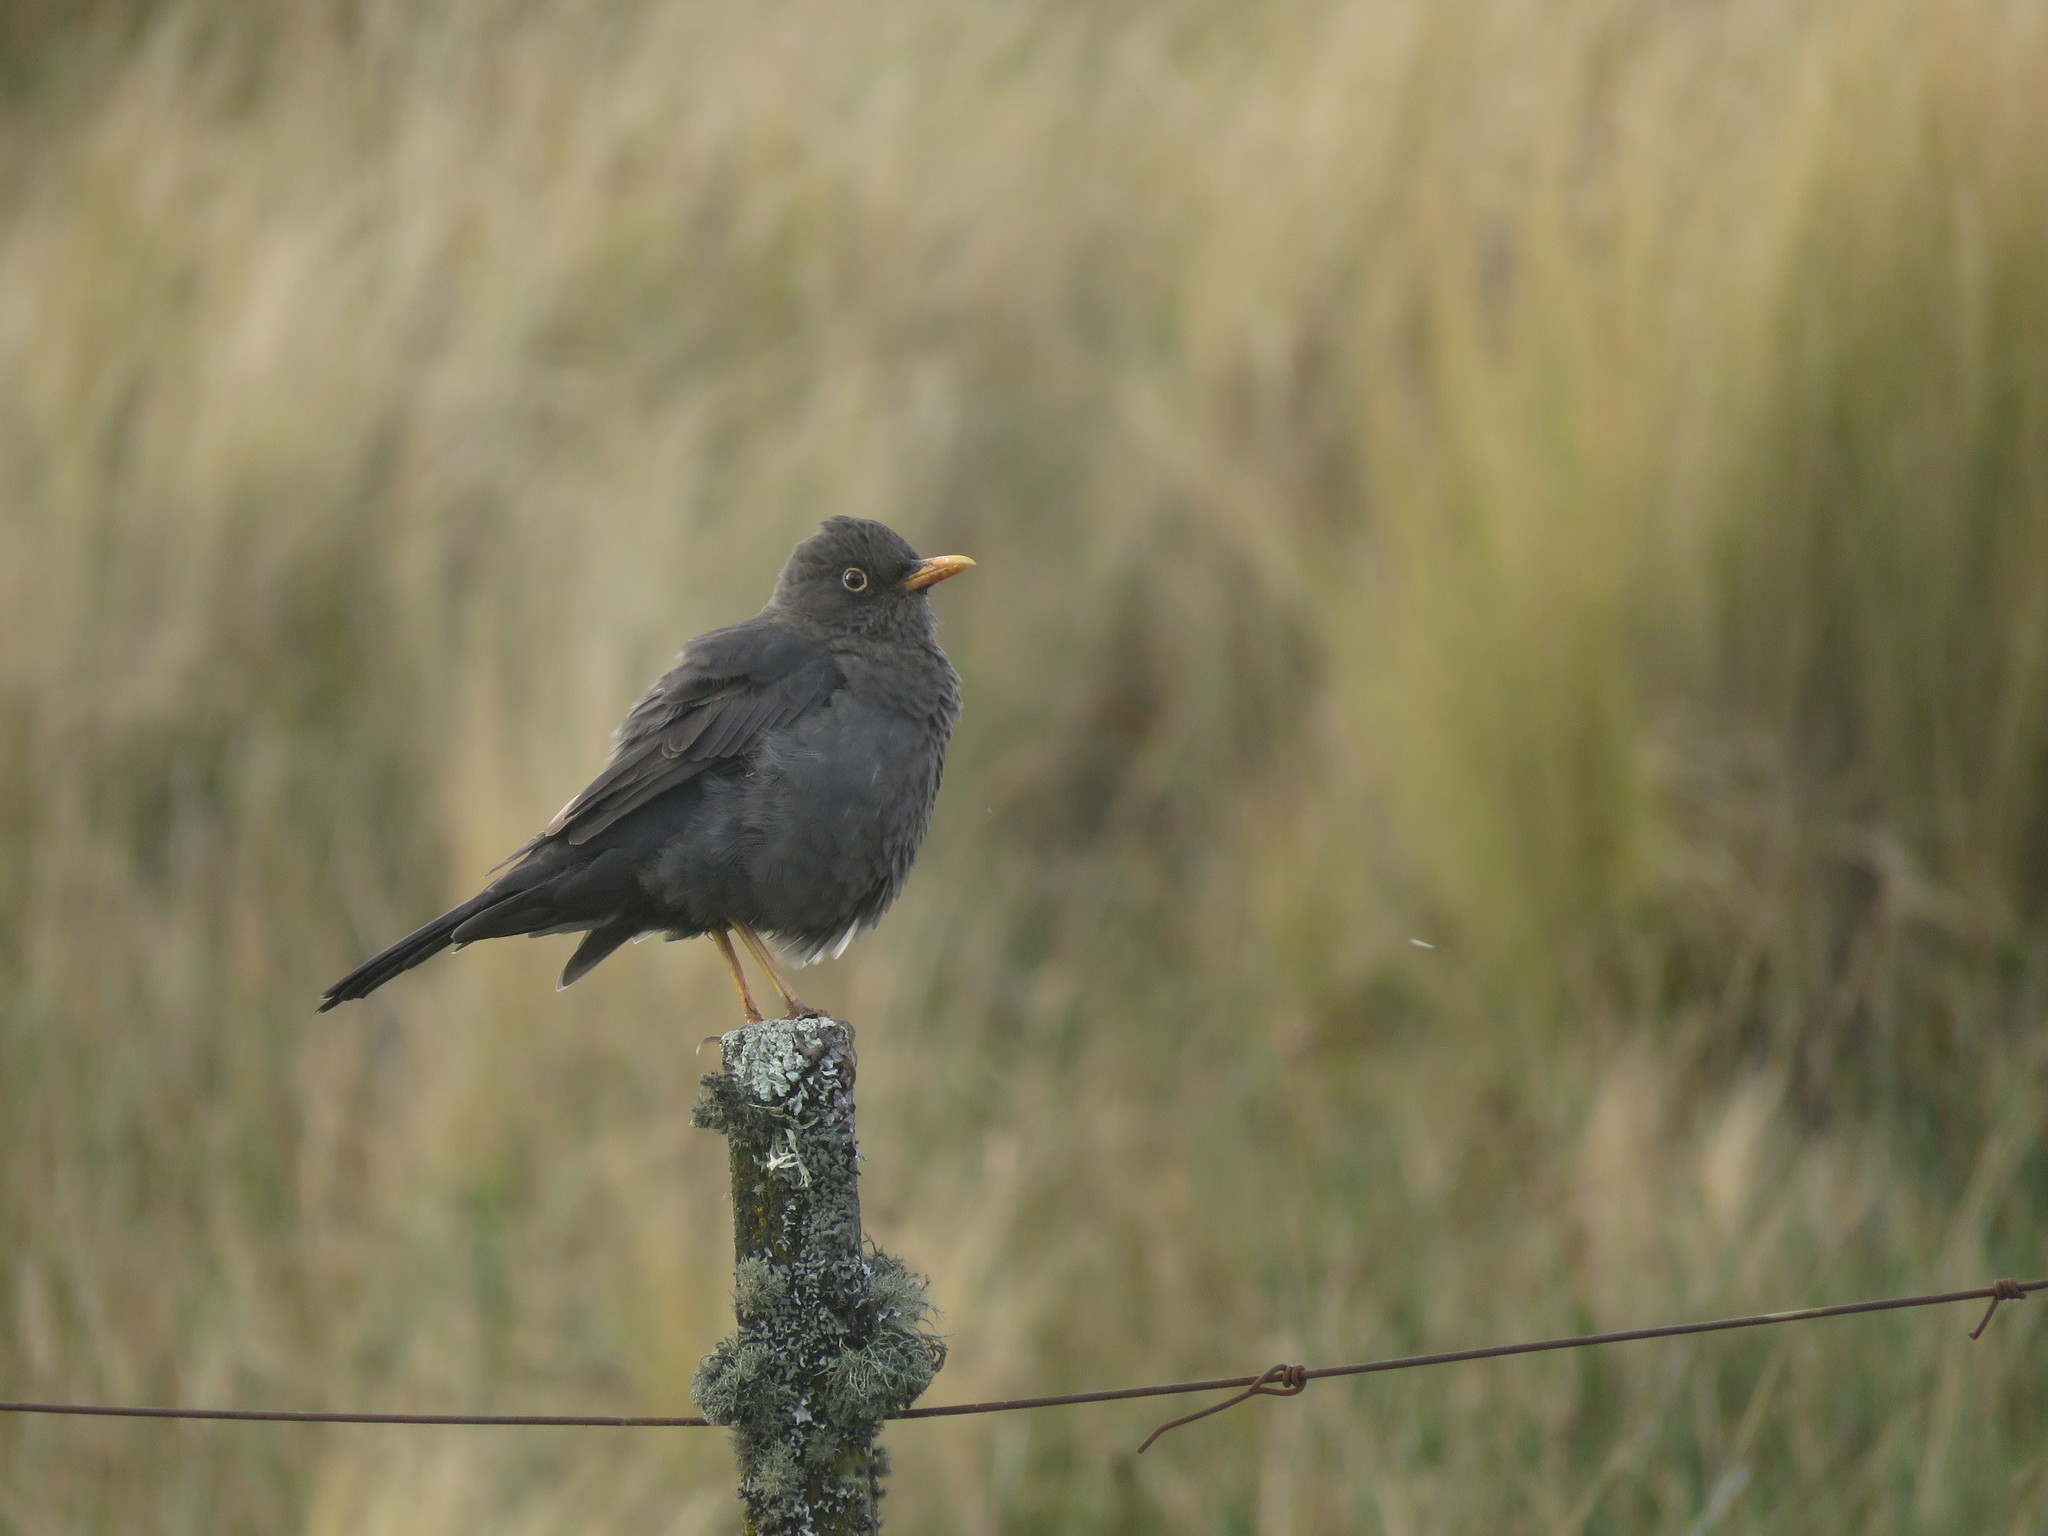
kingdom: Animalia
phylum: Chordata
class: Aves
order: Passeriformes
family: Turdidae
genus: Turdus
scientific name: Turdus chiguanco
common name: Chiguanco thrush
